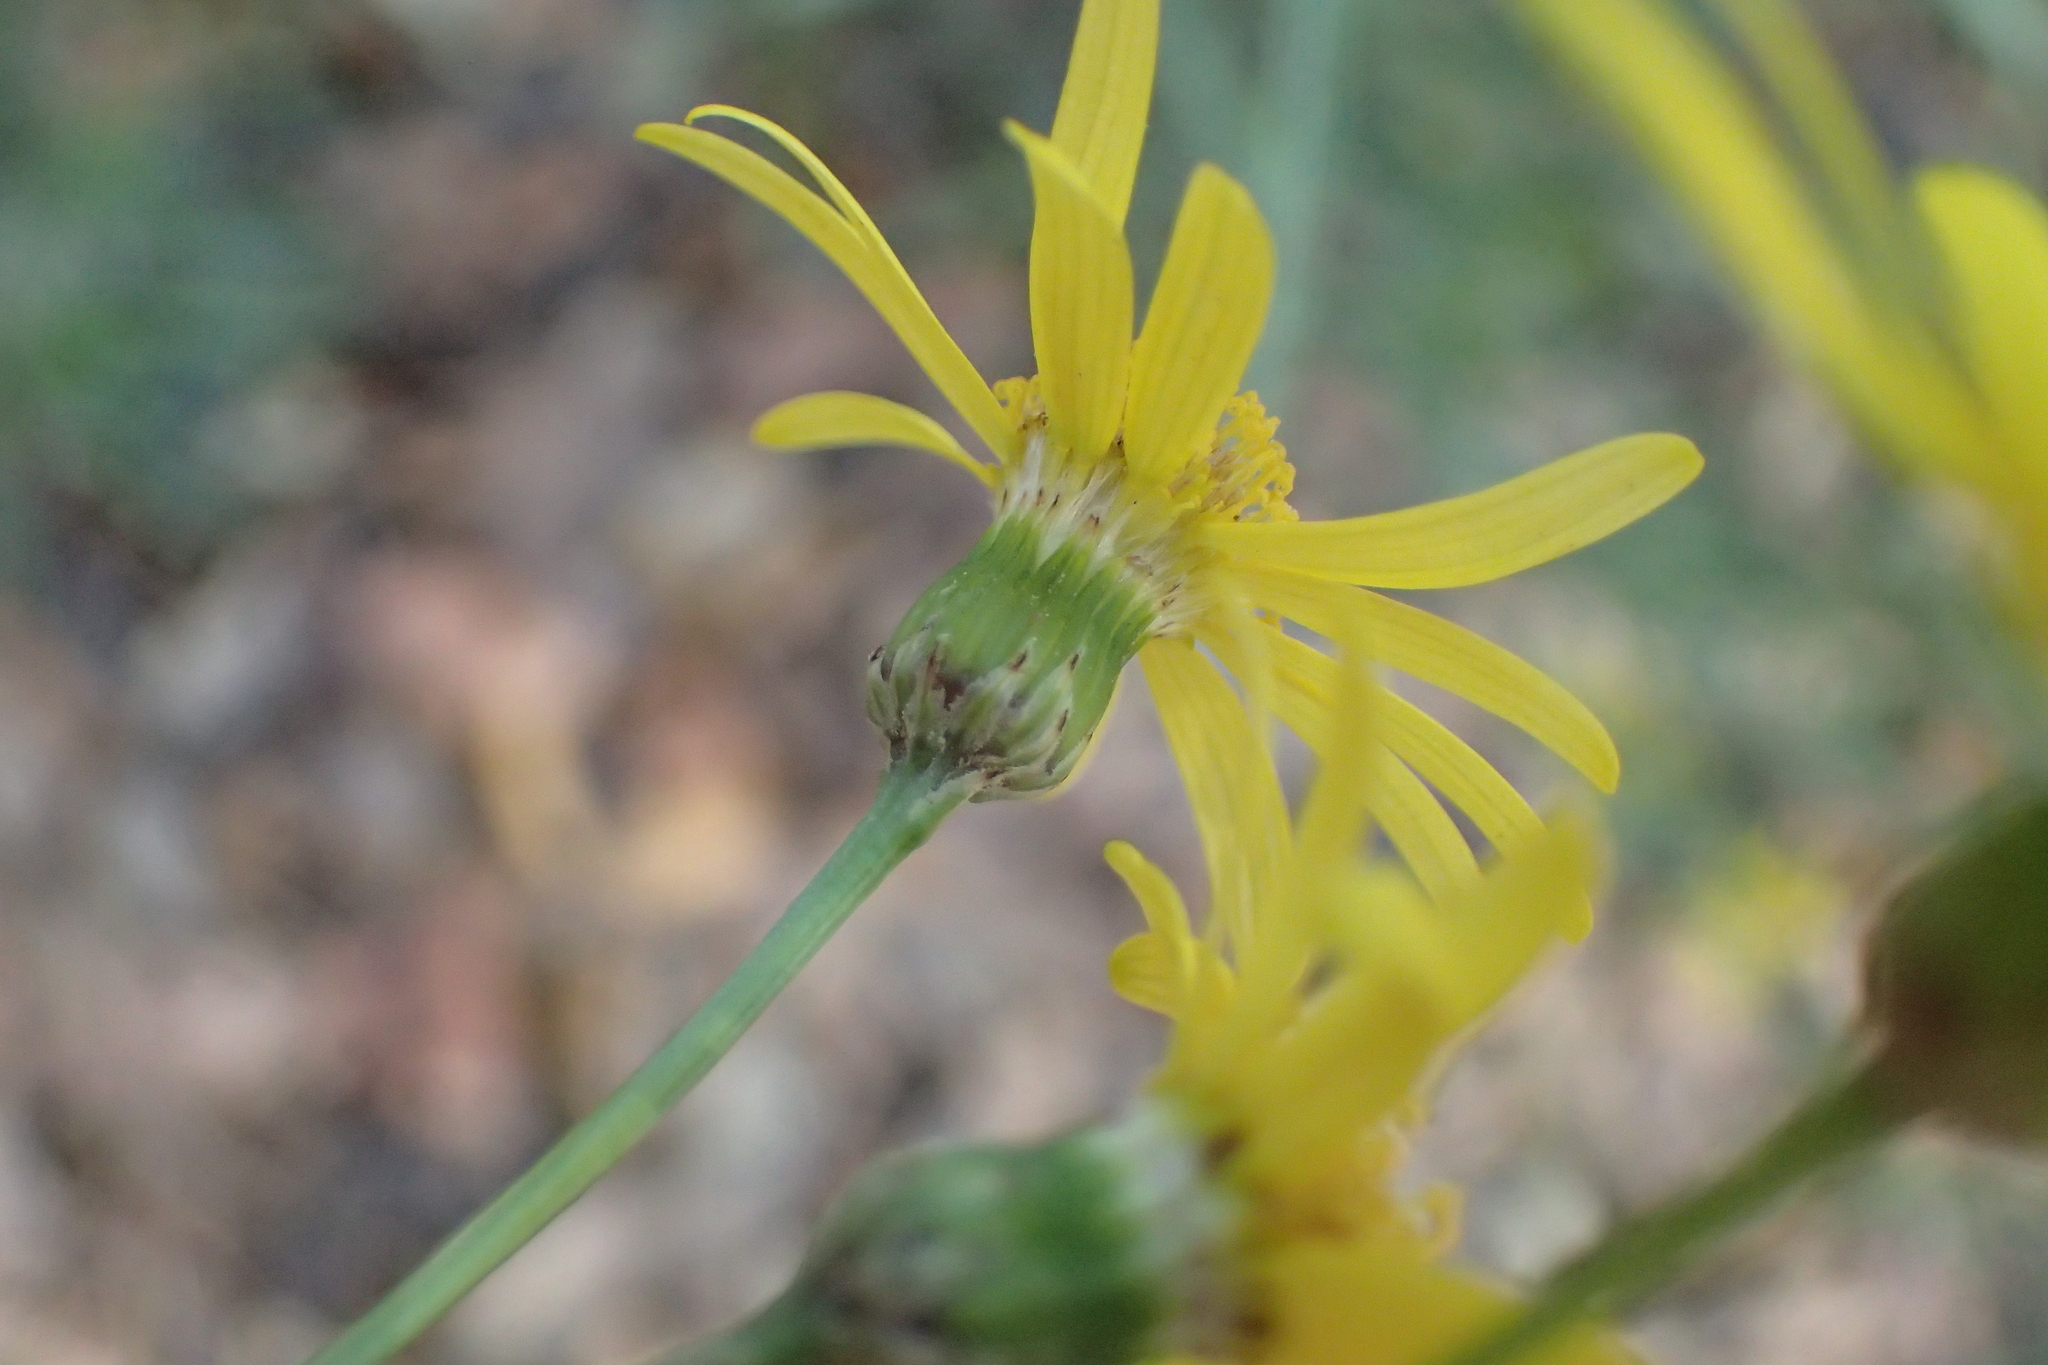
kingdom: Plantae
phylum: Tracheophyta
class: Magnoliopsida
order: Asterales
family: Asteraceae
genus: Senecio
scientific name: Senecio inaequidens
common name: Narrow-leaved ragwort
